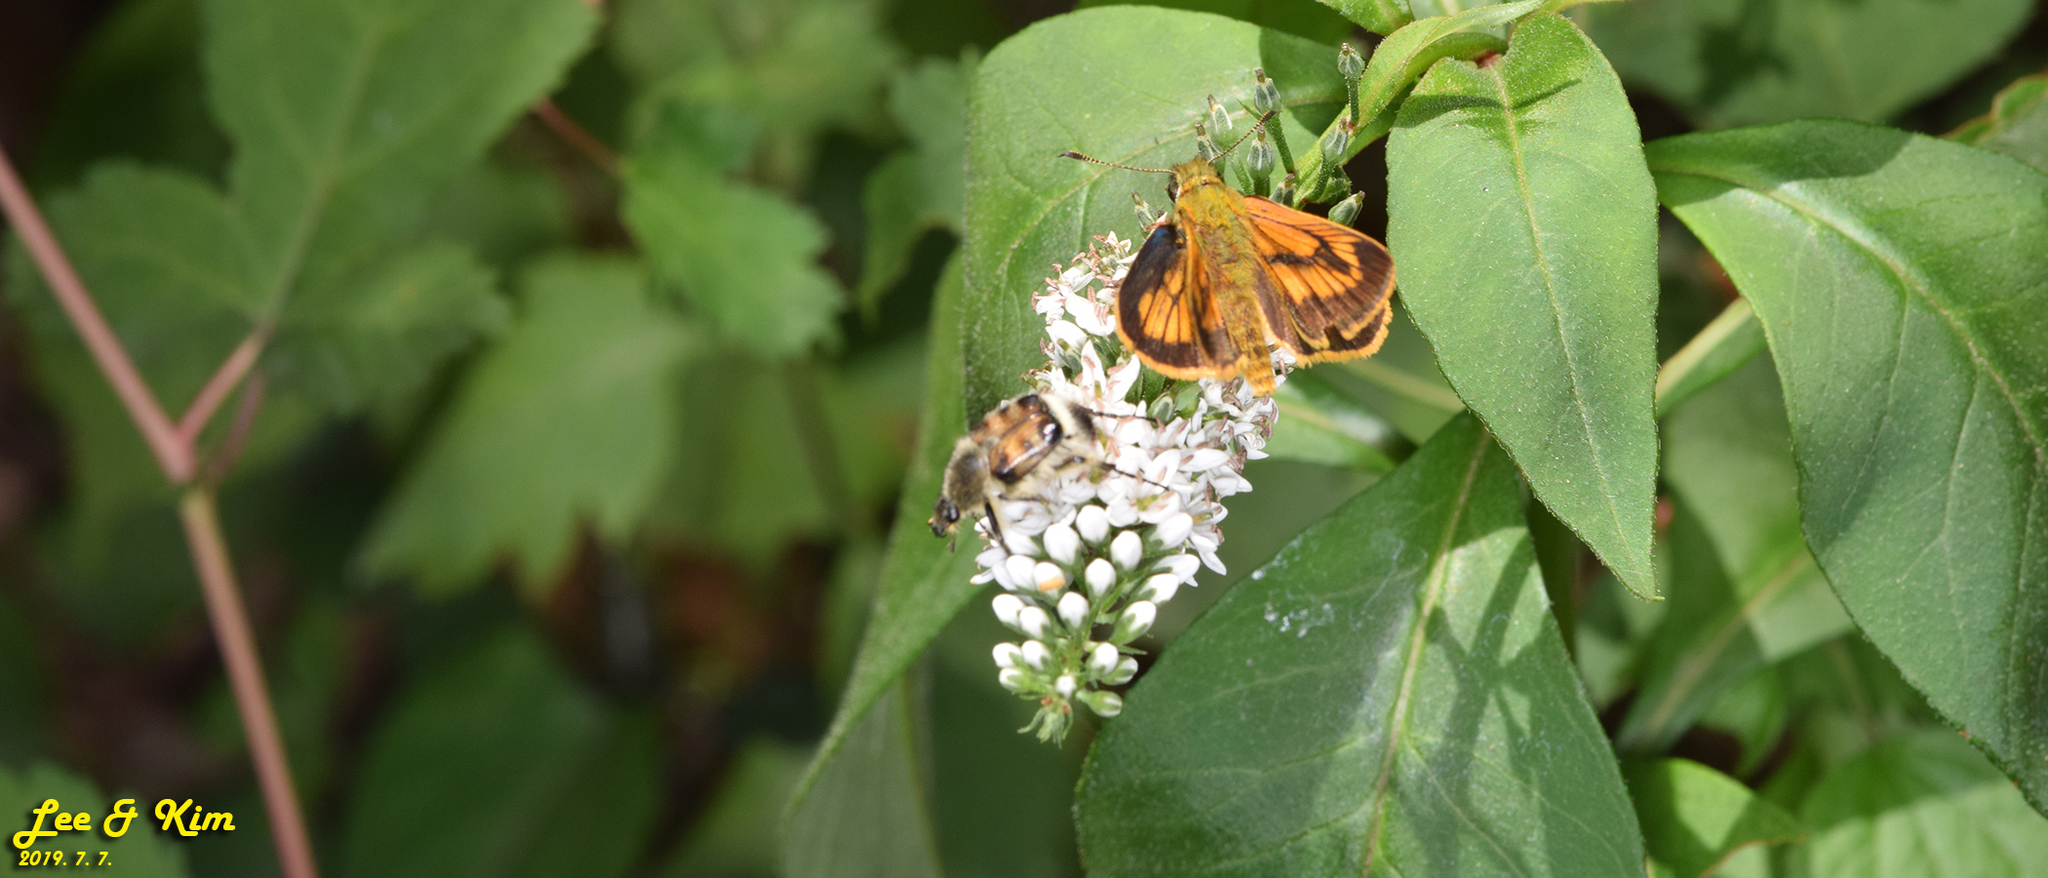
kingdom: Animalia
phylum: Arthropoda
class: Insecta
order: Lepidoptera
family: Hesperiidae
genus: Ochlodes
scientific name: Ochlodes ochracea
